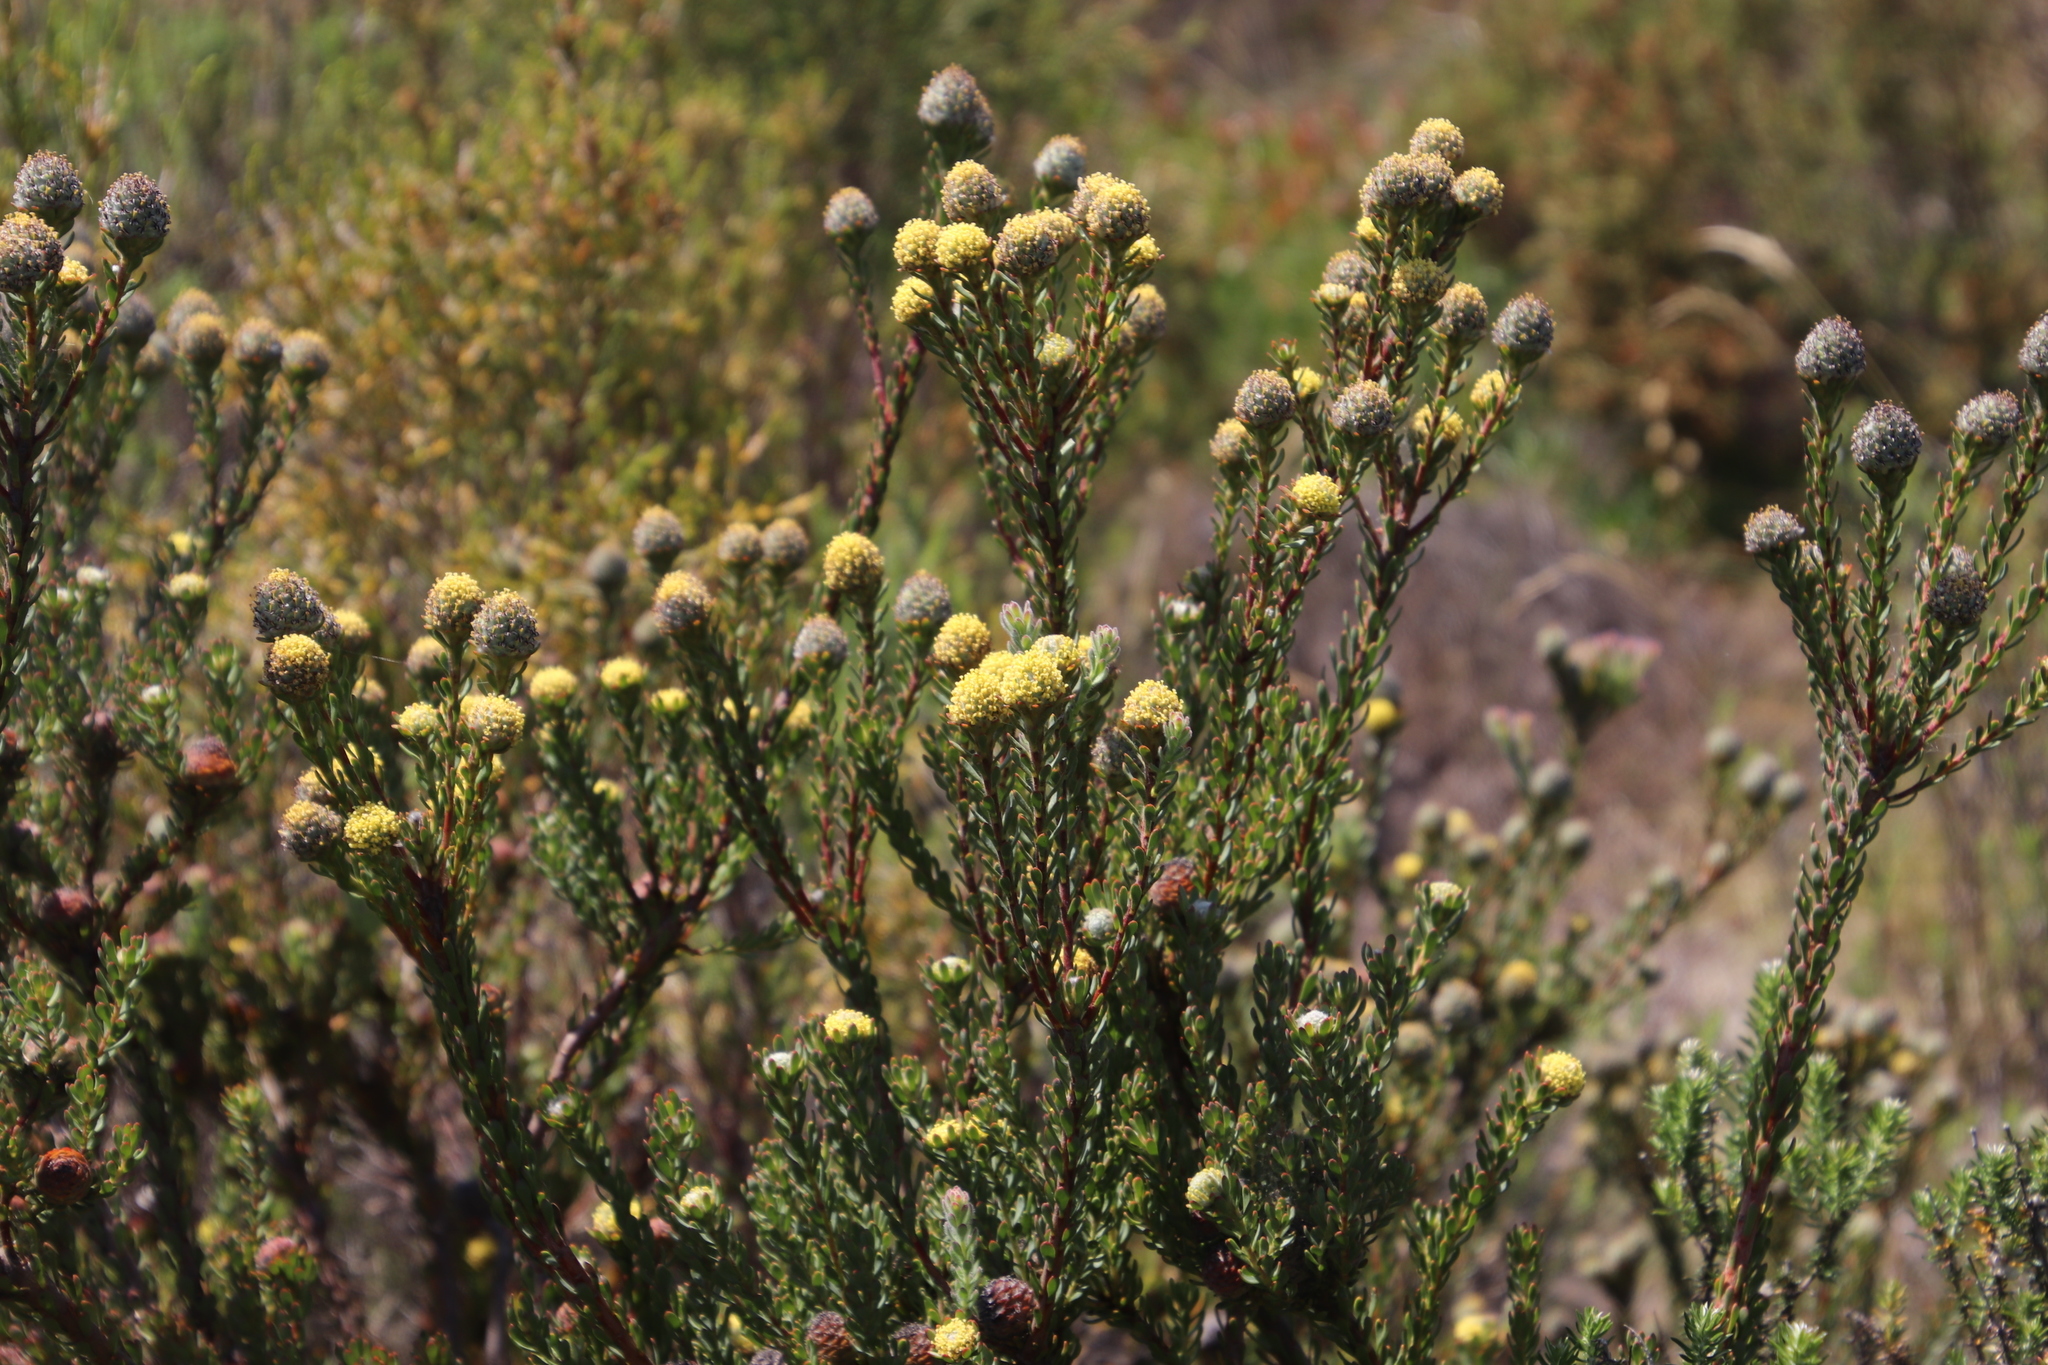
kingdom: Plantae
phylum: Tracheophyta
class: Magnoliopsida
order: Proteales
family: Proteaceae
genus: Leucadendron
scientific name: Leucadendron levisanus
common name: Cape flats conebush
